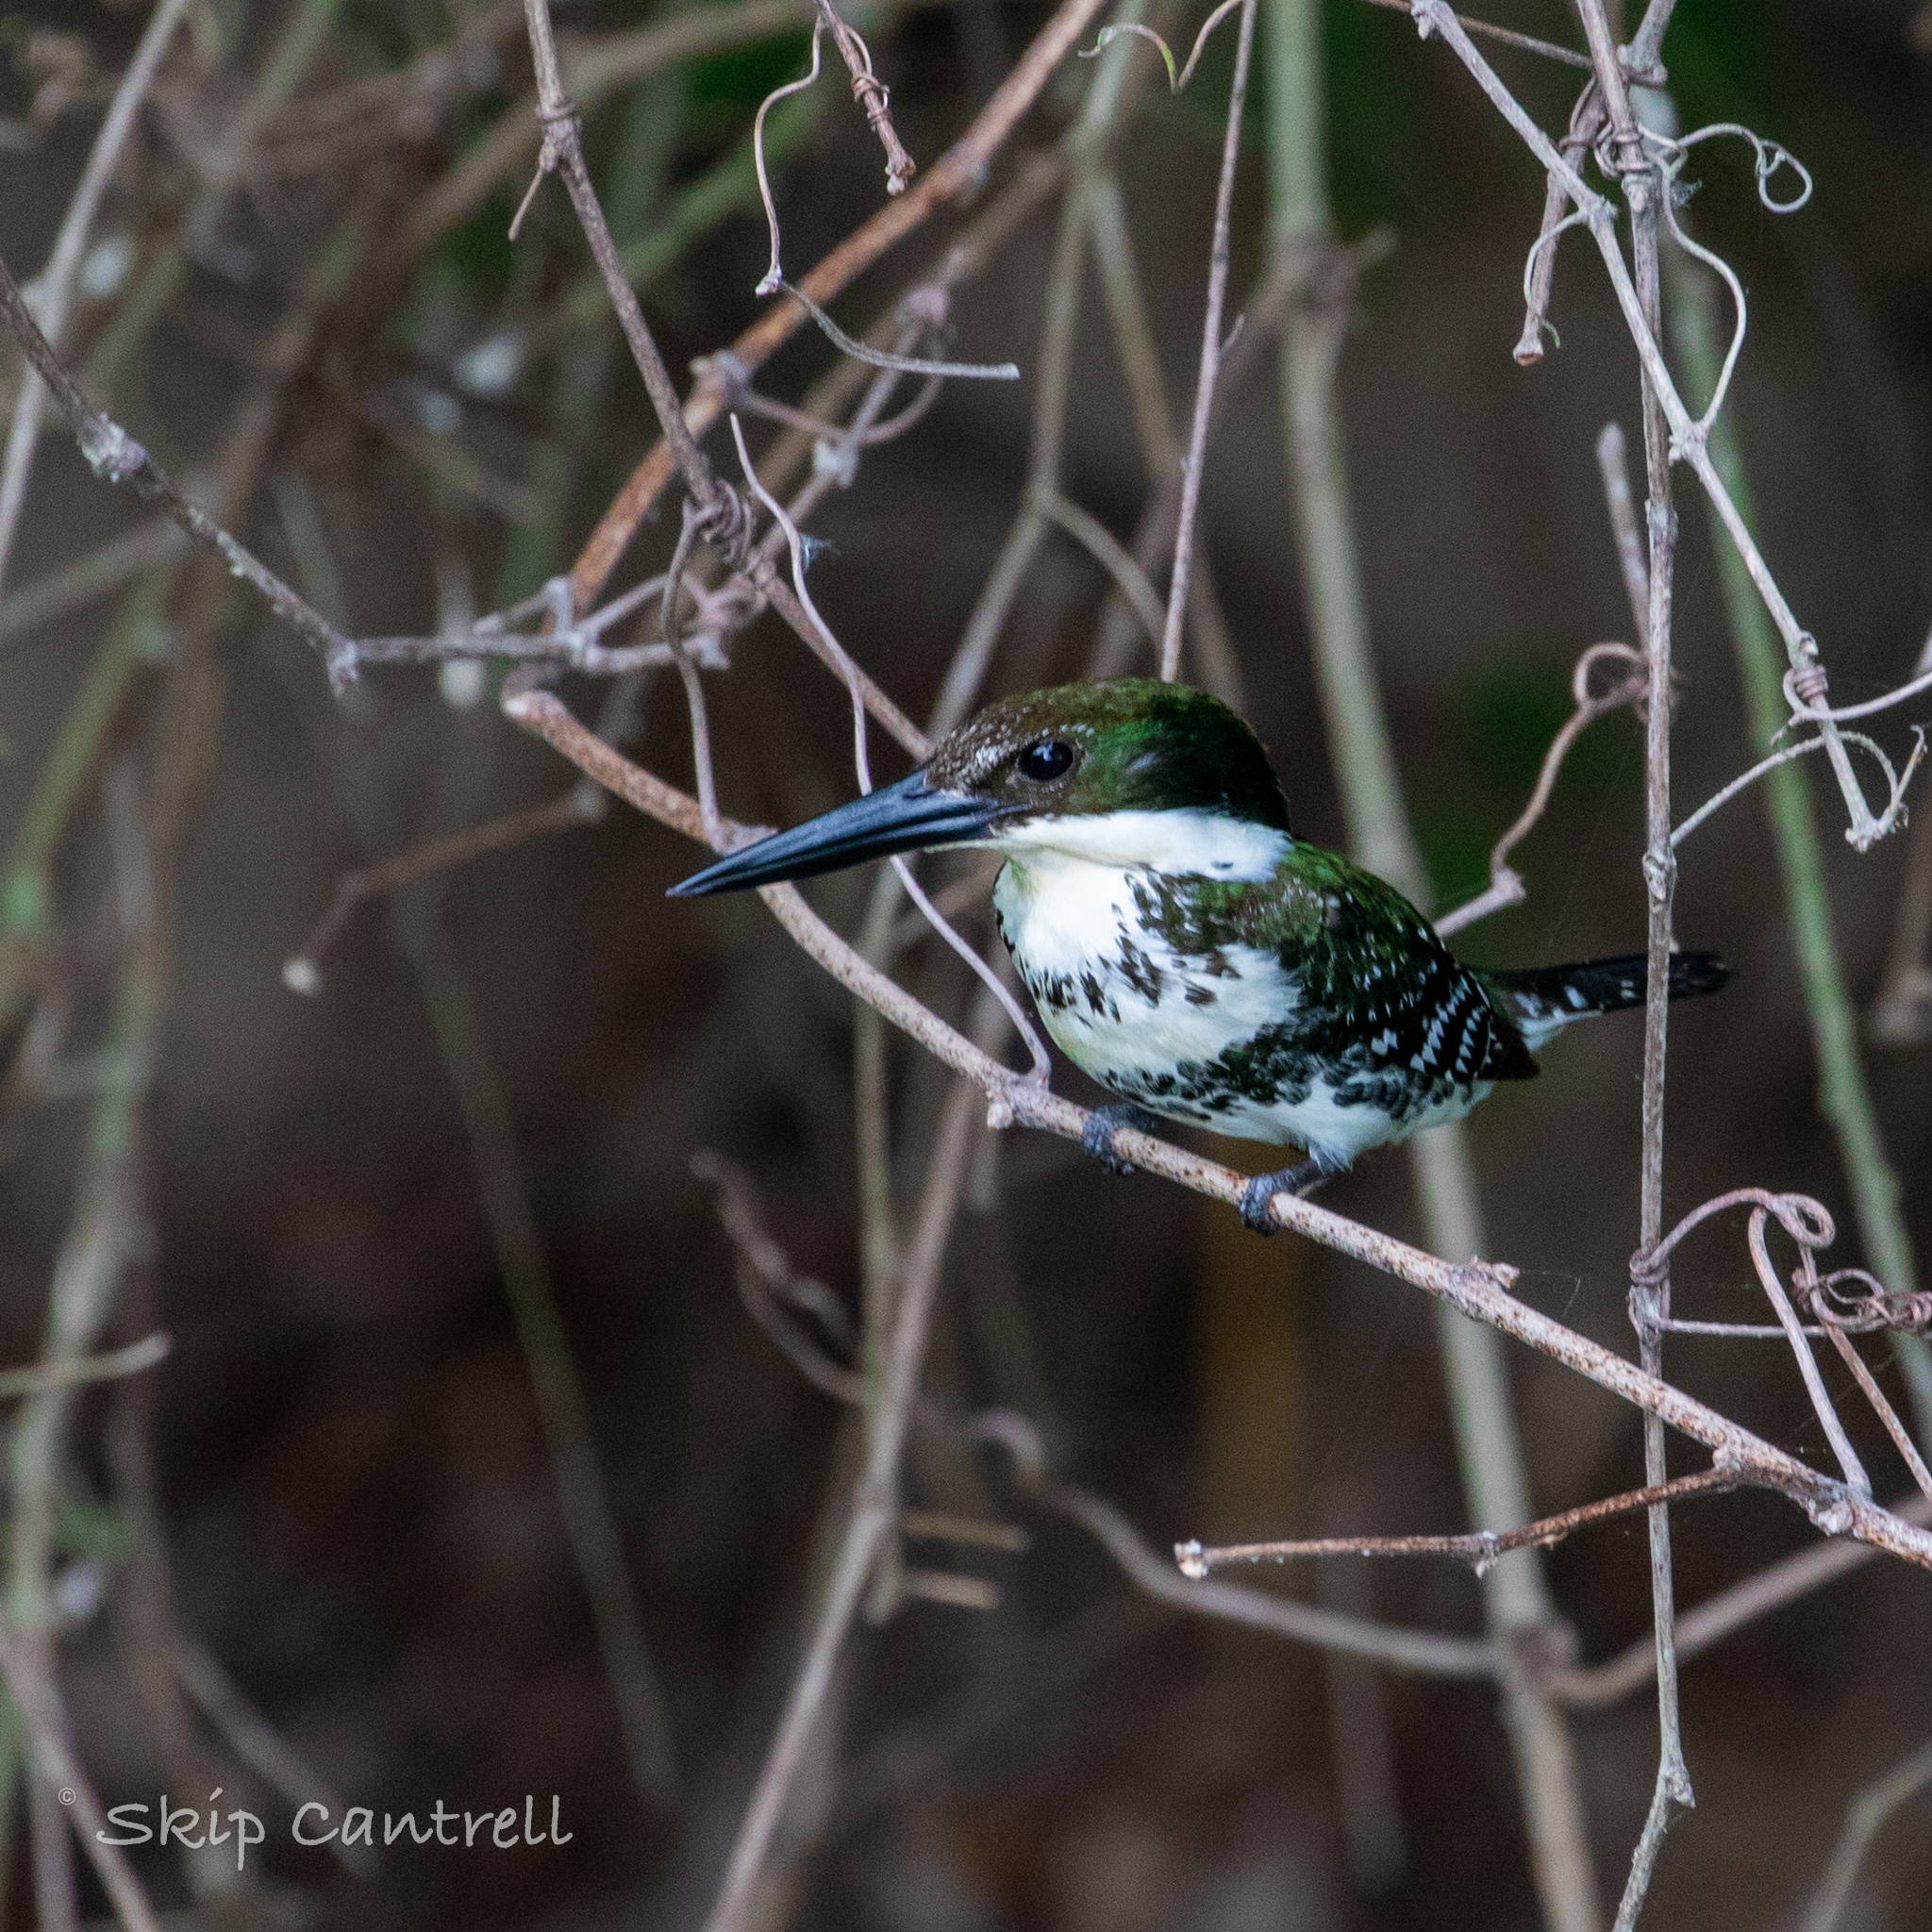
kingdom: Animalia
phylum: Chordata
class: Aves
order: Coraciiformes
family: Alcedinidae
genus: Chloroceryle
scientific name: Chloroceryle americana
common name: Green kingfisher
